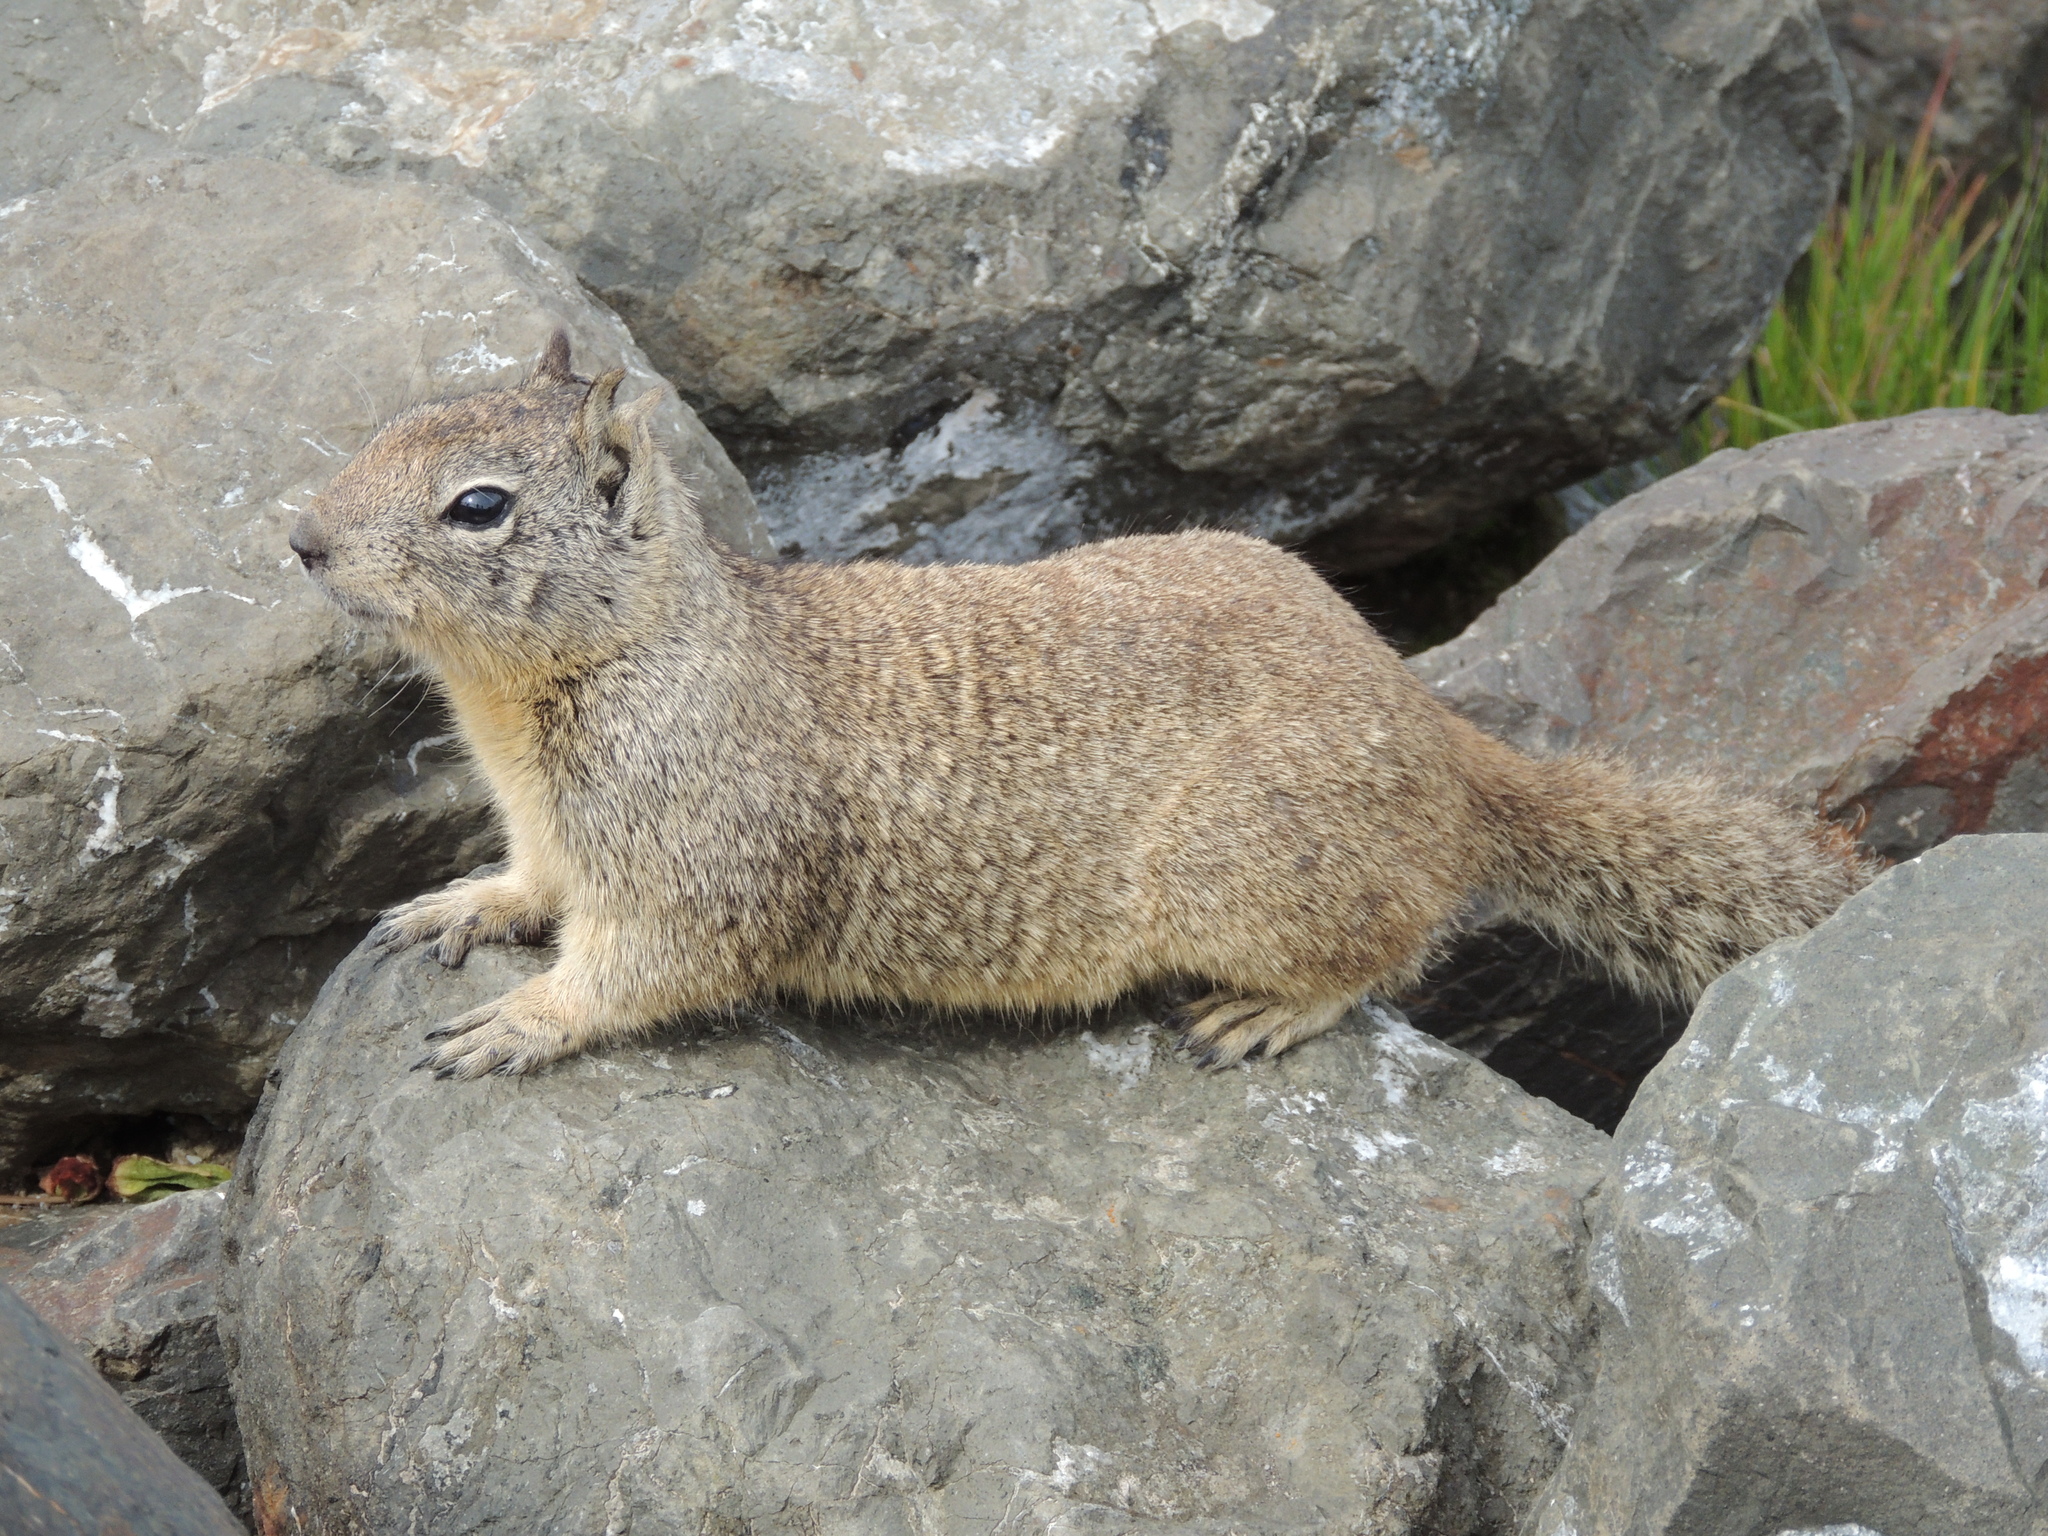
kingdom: Animalia
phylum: Chordata
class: Mammalia
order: Rodentia
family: Sciuridae
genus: Otospermophilus
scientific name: Otospermophilus beecheyi
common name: California ground squirrel
